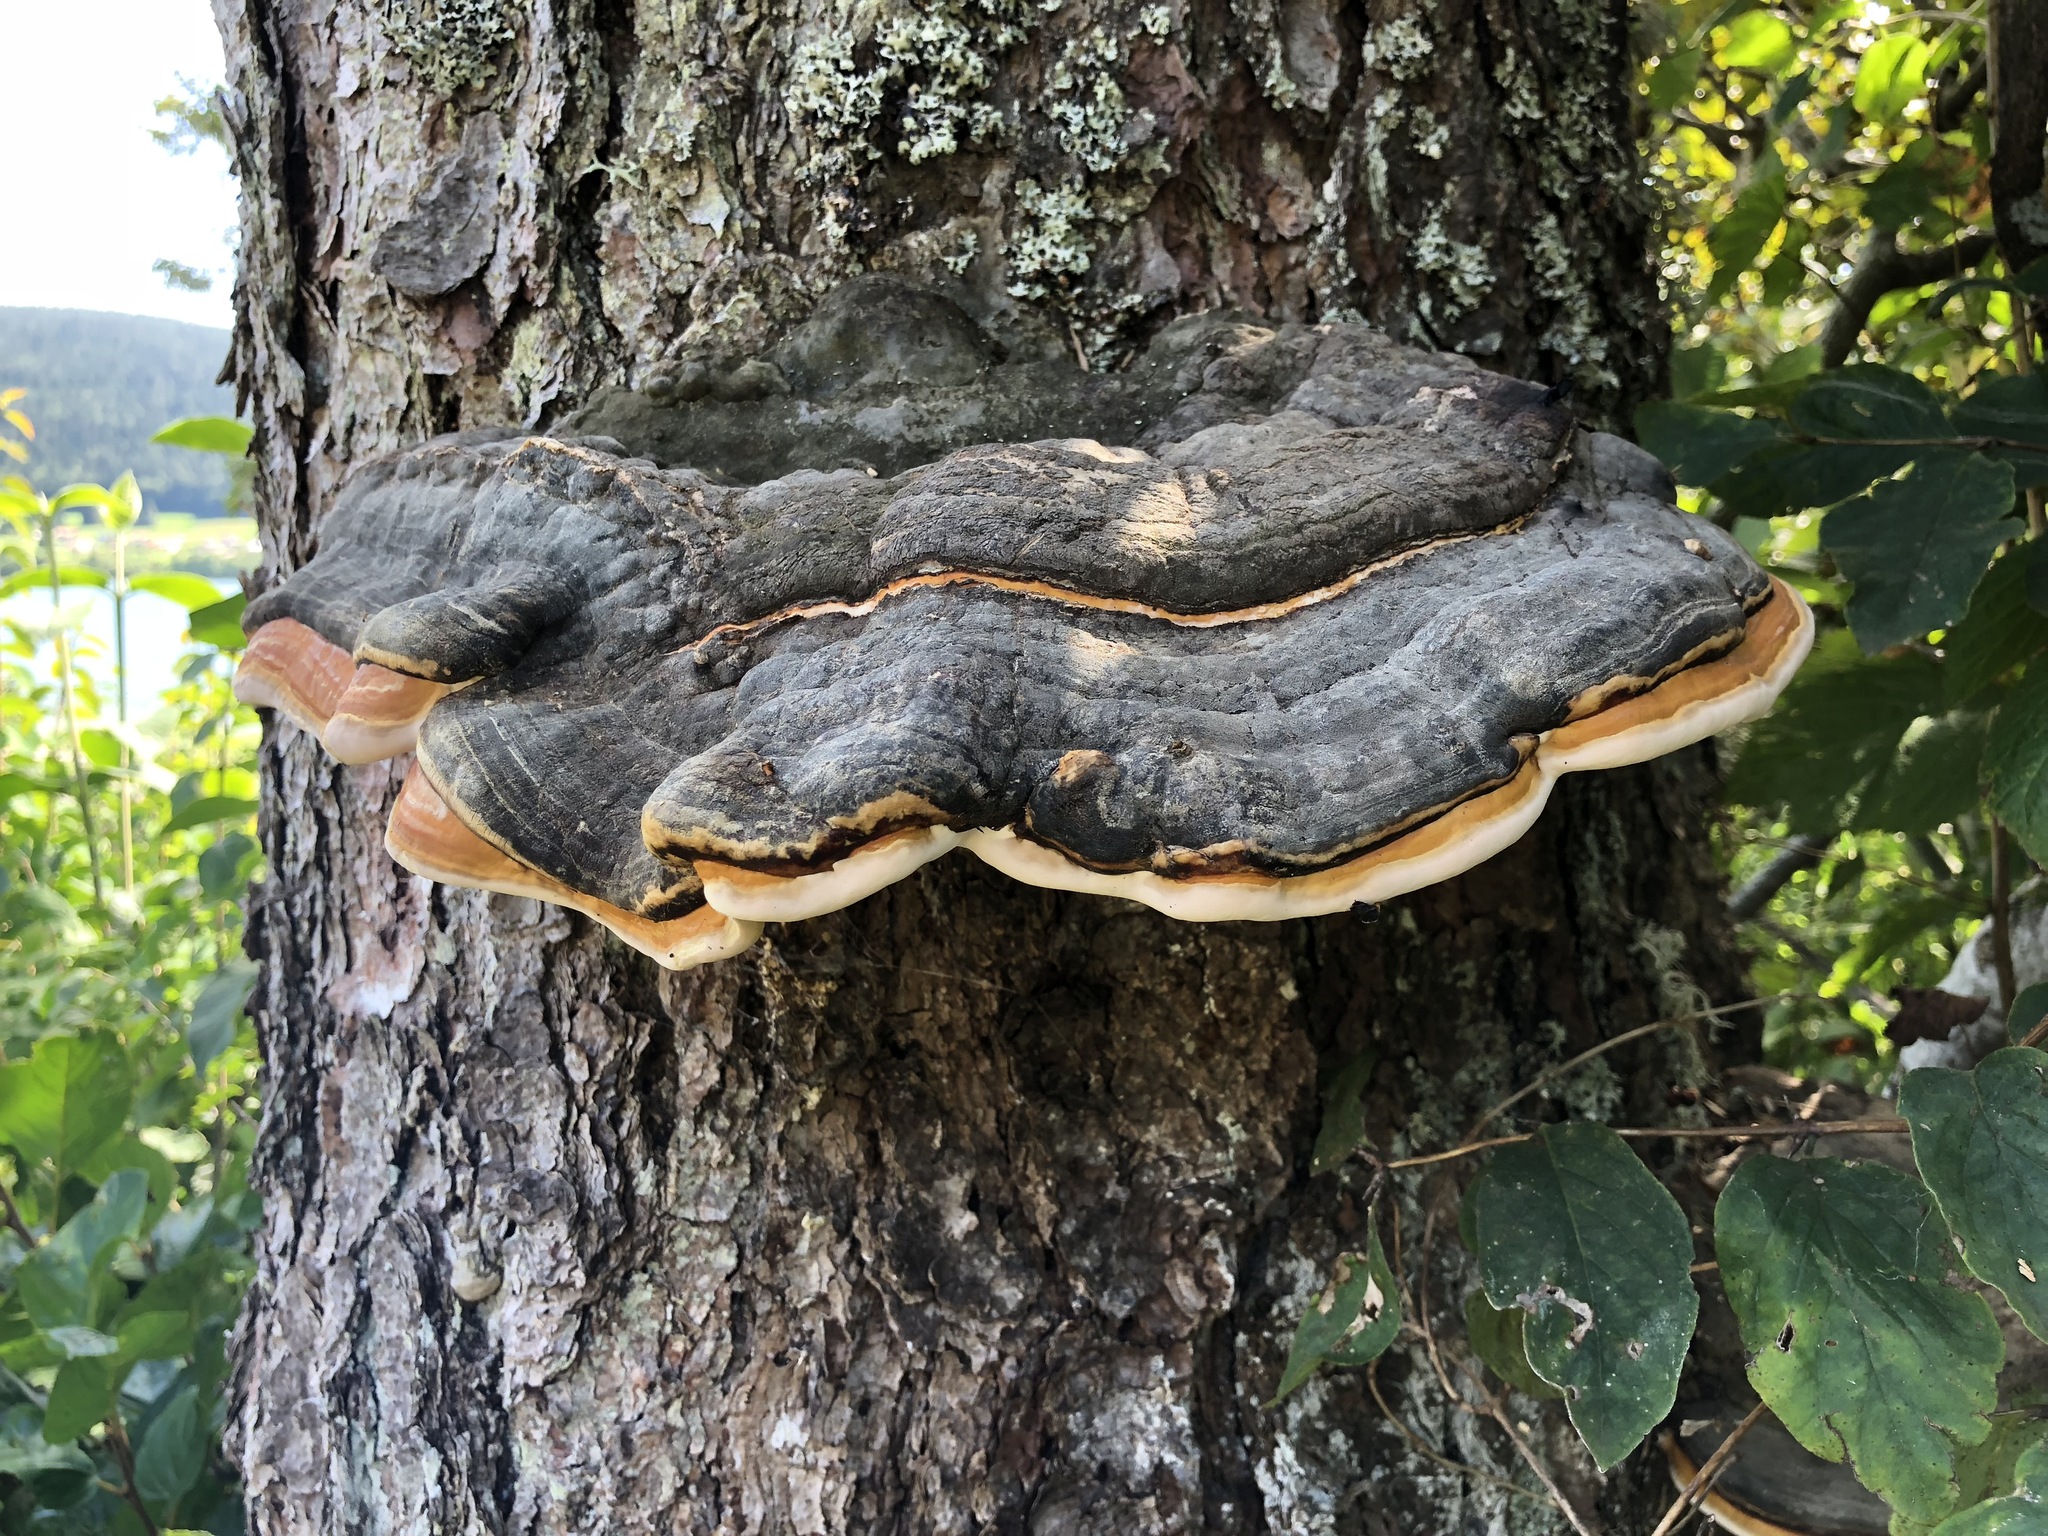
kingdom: Fungi
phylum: Basidiomycota
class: Agaricomycetes
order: Polyporales
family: Fomitopsidaceae
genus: Fomitopsis
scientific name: Fomitopsis pinicola
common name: Red-belted bracket
